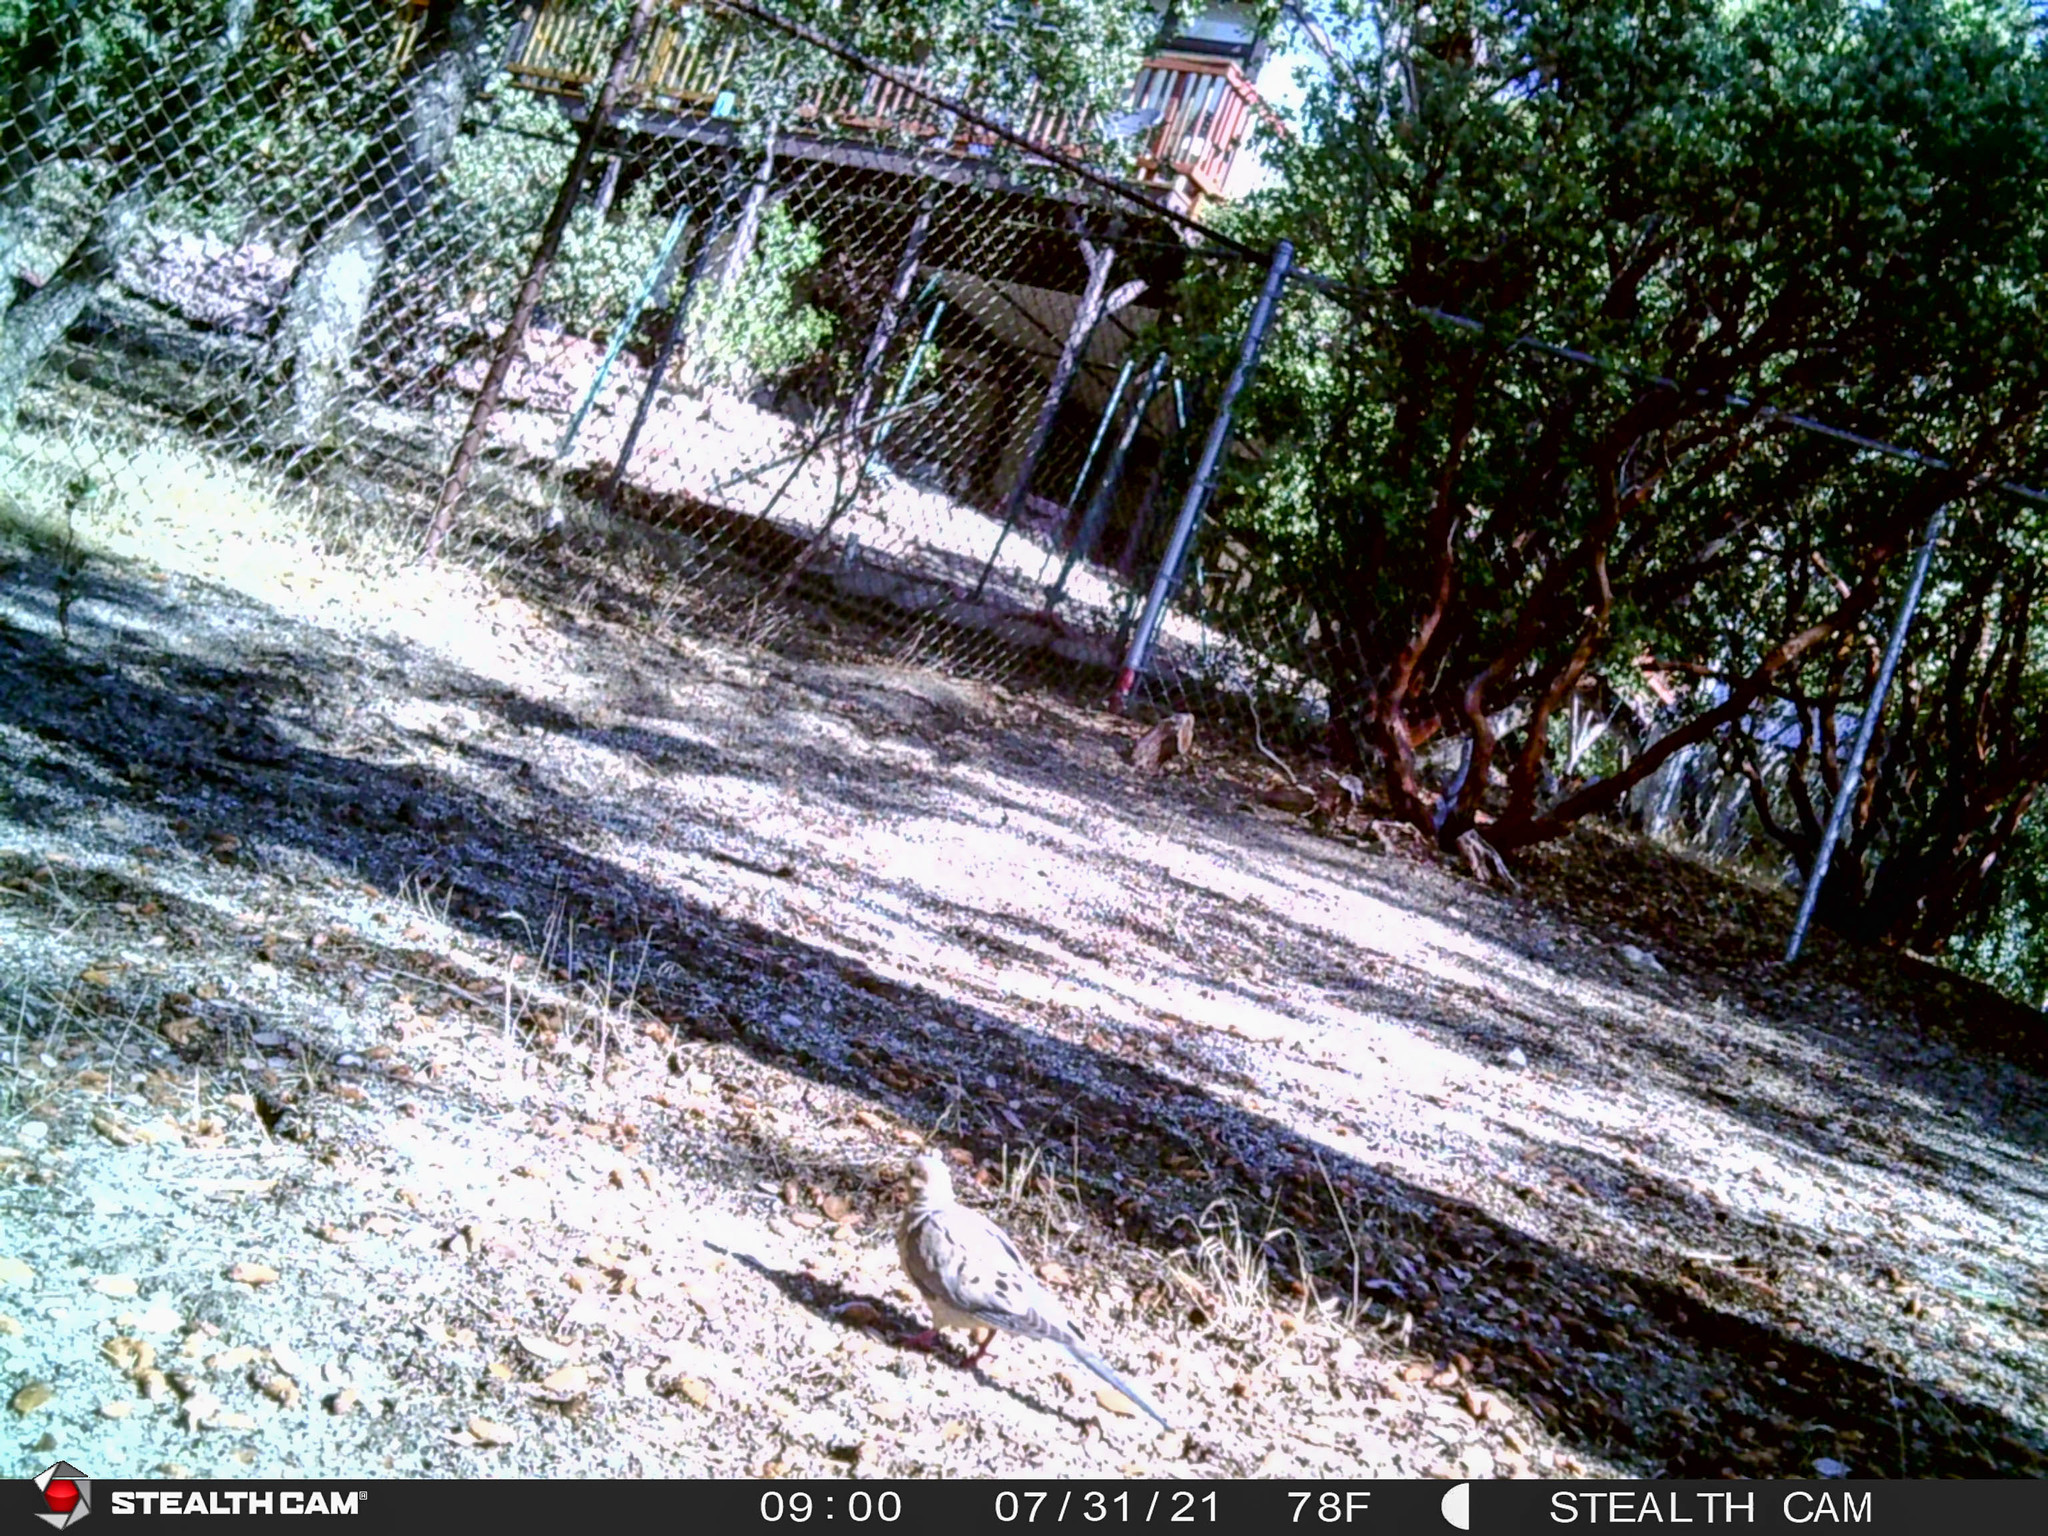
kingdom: Animalia
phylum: Chordata
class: Aves
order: Columbiformes
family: Columbidae
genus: Zenaida
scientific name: Zenaida macroura
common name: Mourning dove
